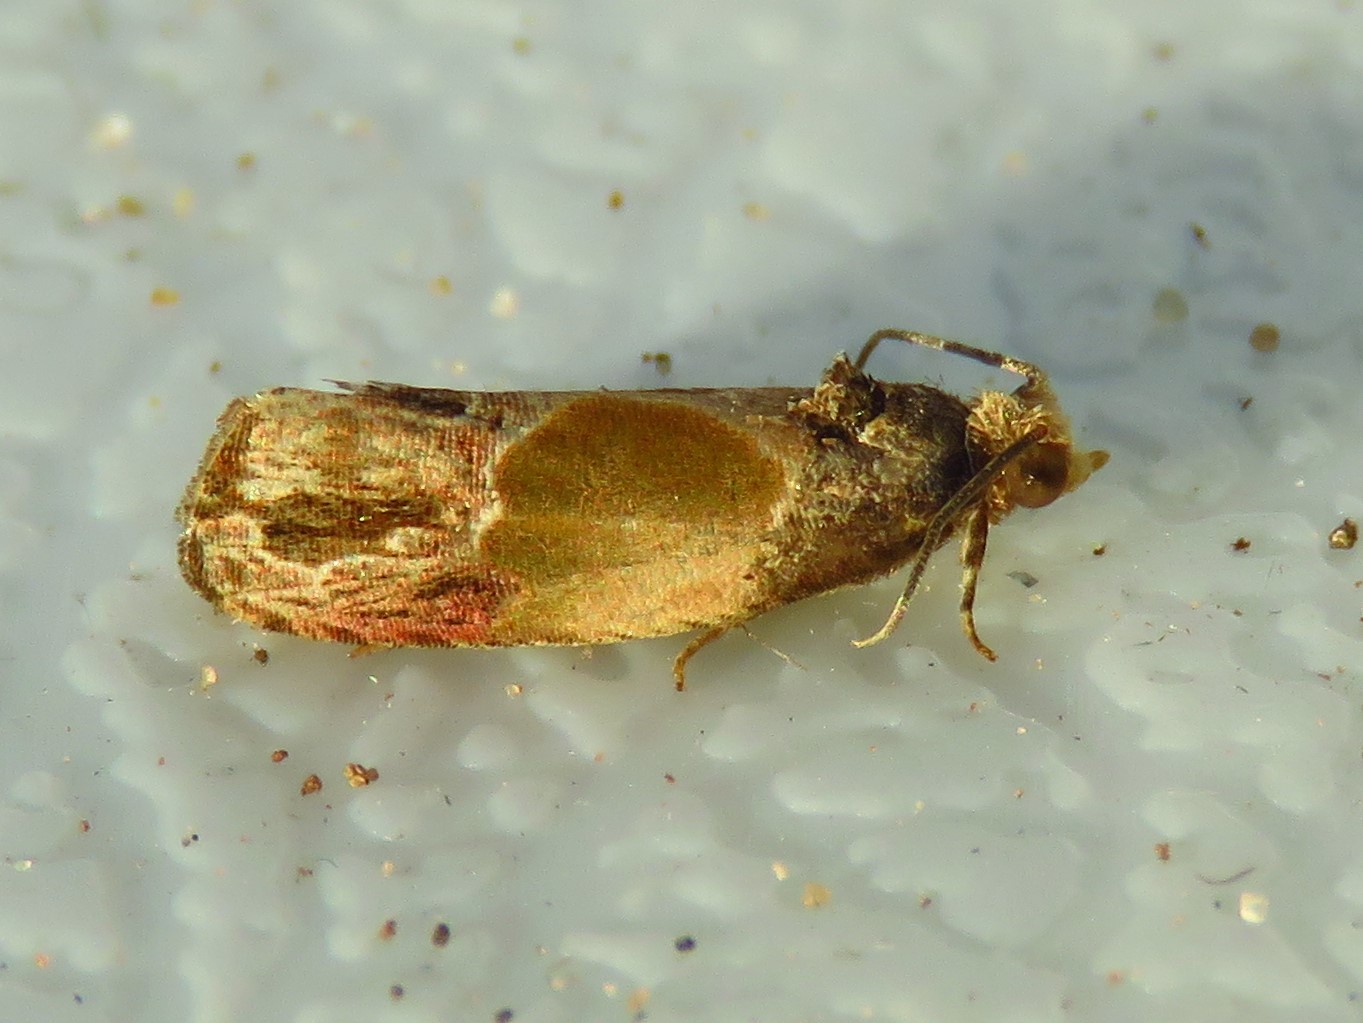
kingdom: Animalia
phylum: Arthropoda
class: Insecta
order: Lepidoptera
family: Tortricidae
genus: Eumarozia
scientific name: Eumarozia malachitana
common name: Sculptured moth
